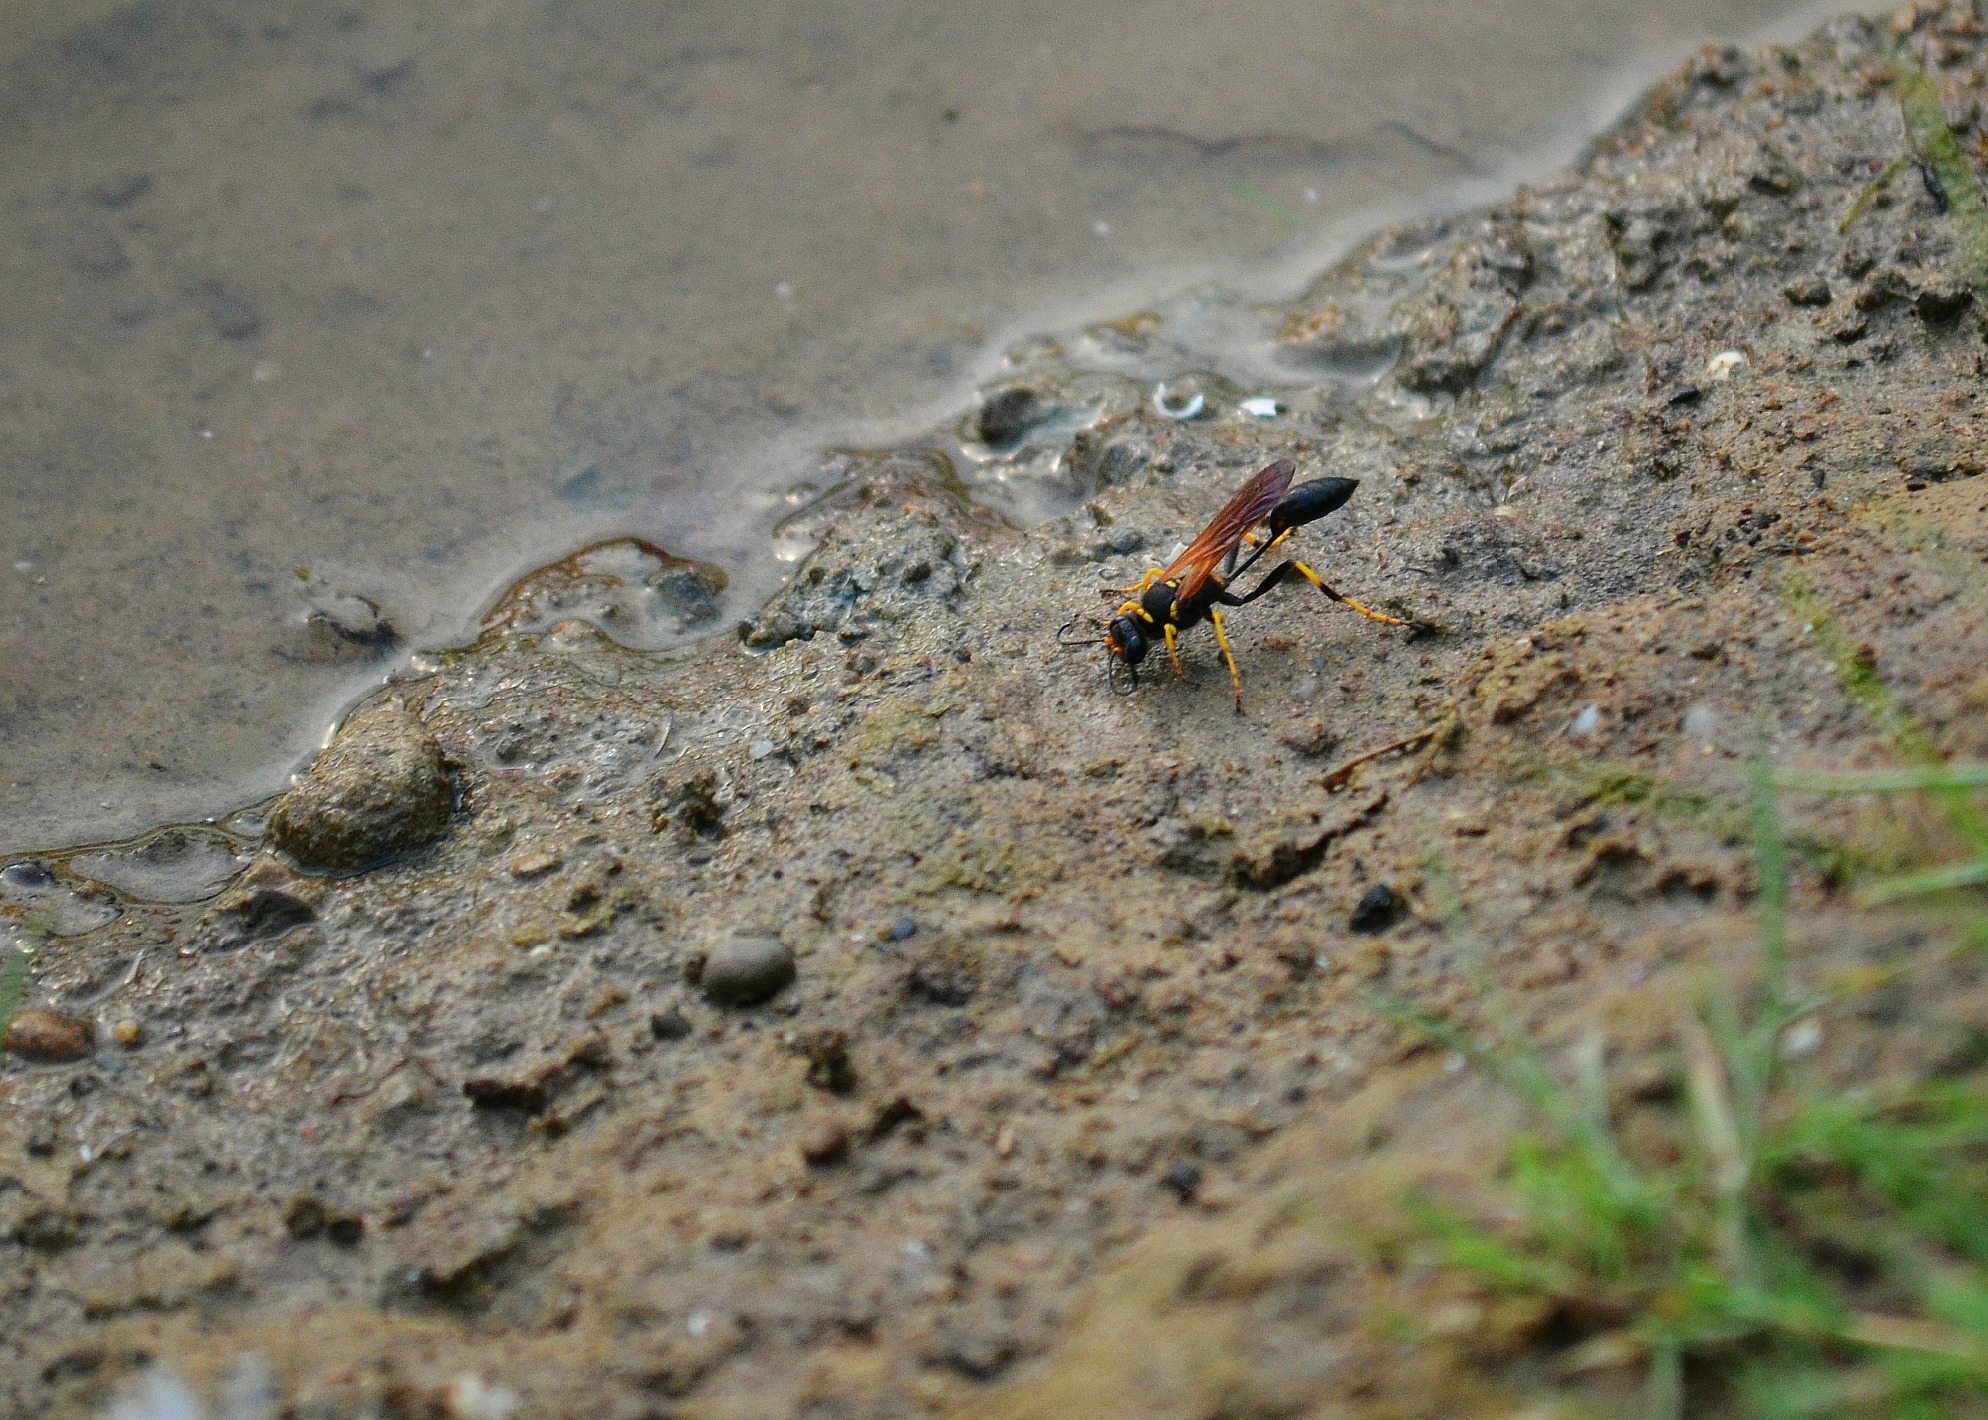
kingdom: Animalia
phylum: Arthropoda
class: Insecta
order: Hymenoptera
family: Sphecidae
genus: Sceliphron
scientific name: Sceliphron caementarium
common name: Mud dauber
